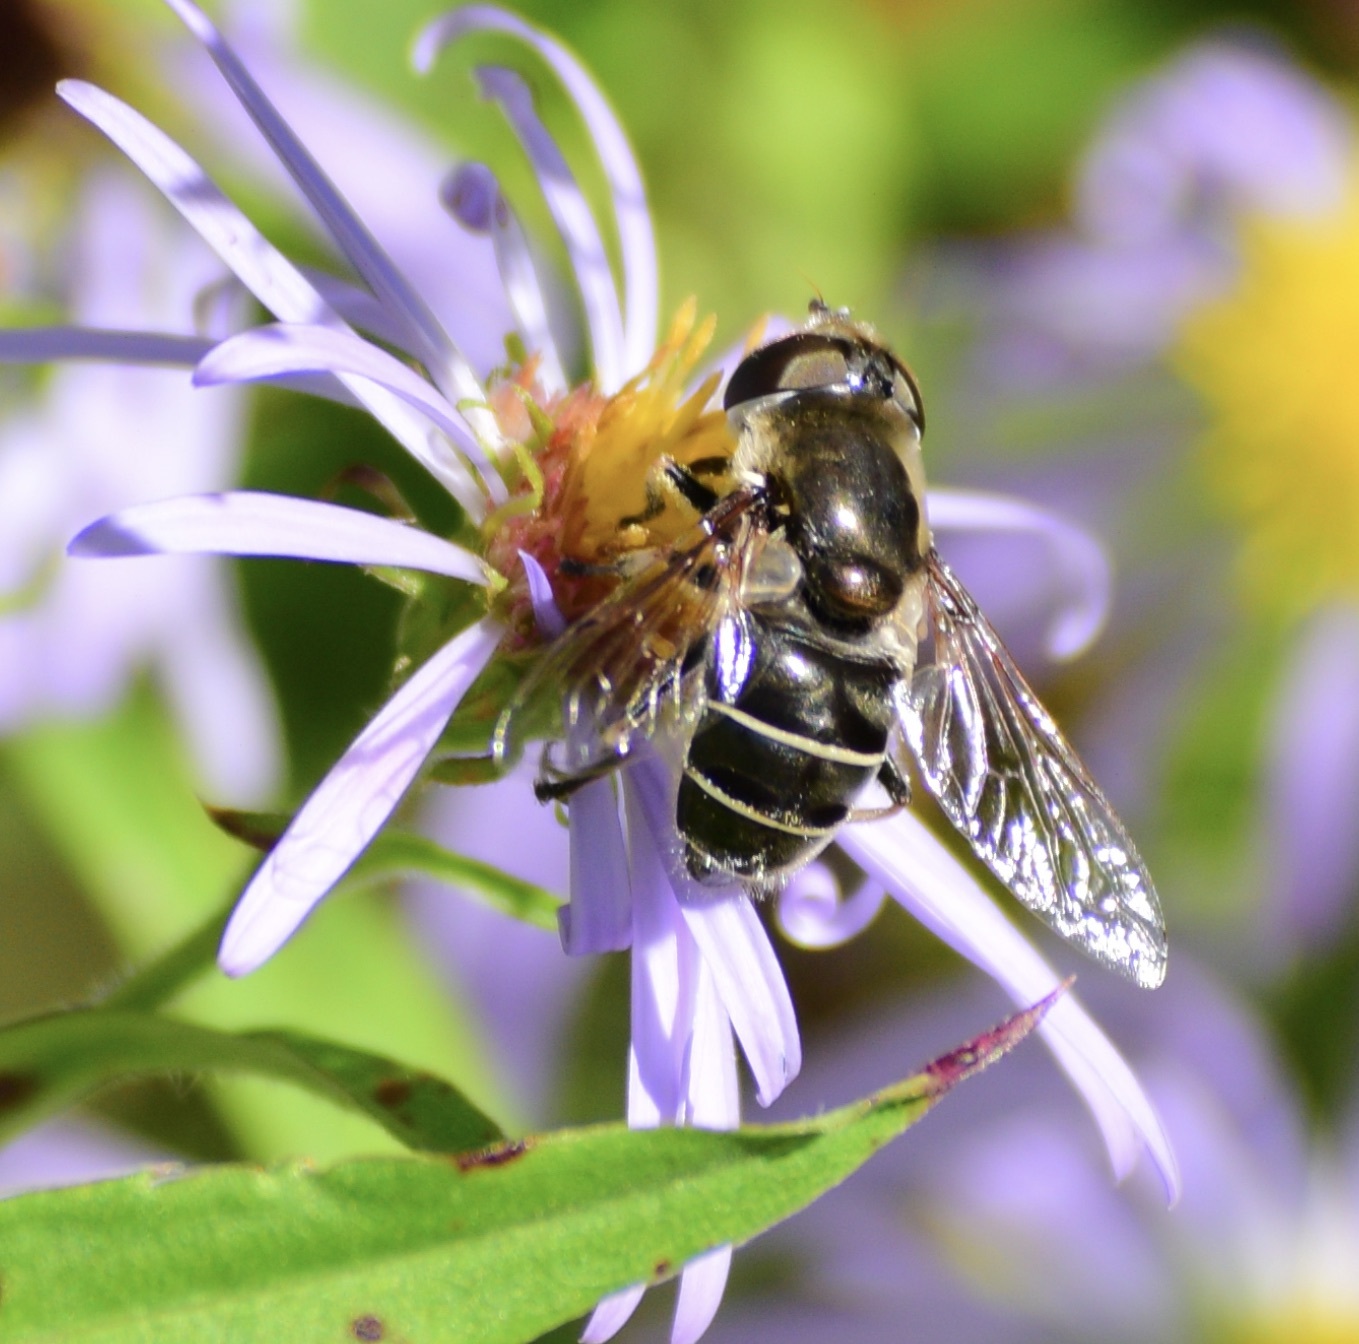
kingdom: Animalia
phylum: Arthropoda
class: Insecta
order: Diptera
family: Syrphidae
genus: Eristalis
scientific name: Eristalis dimidiata
